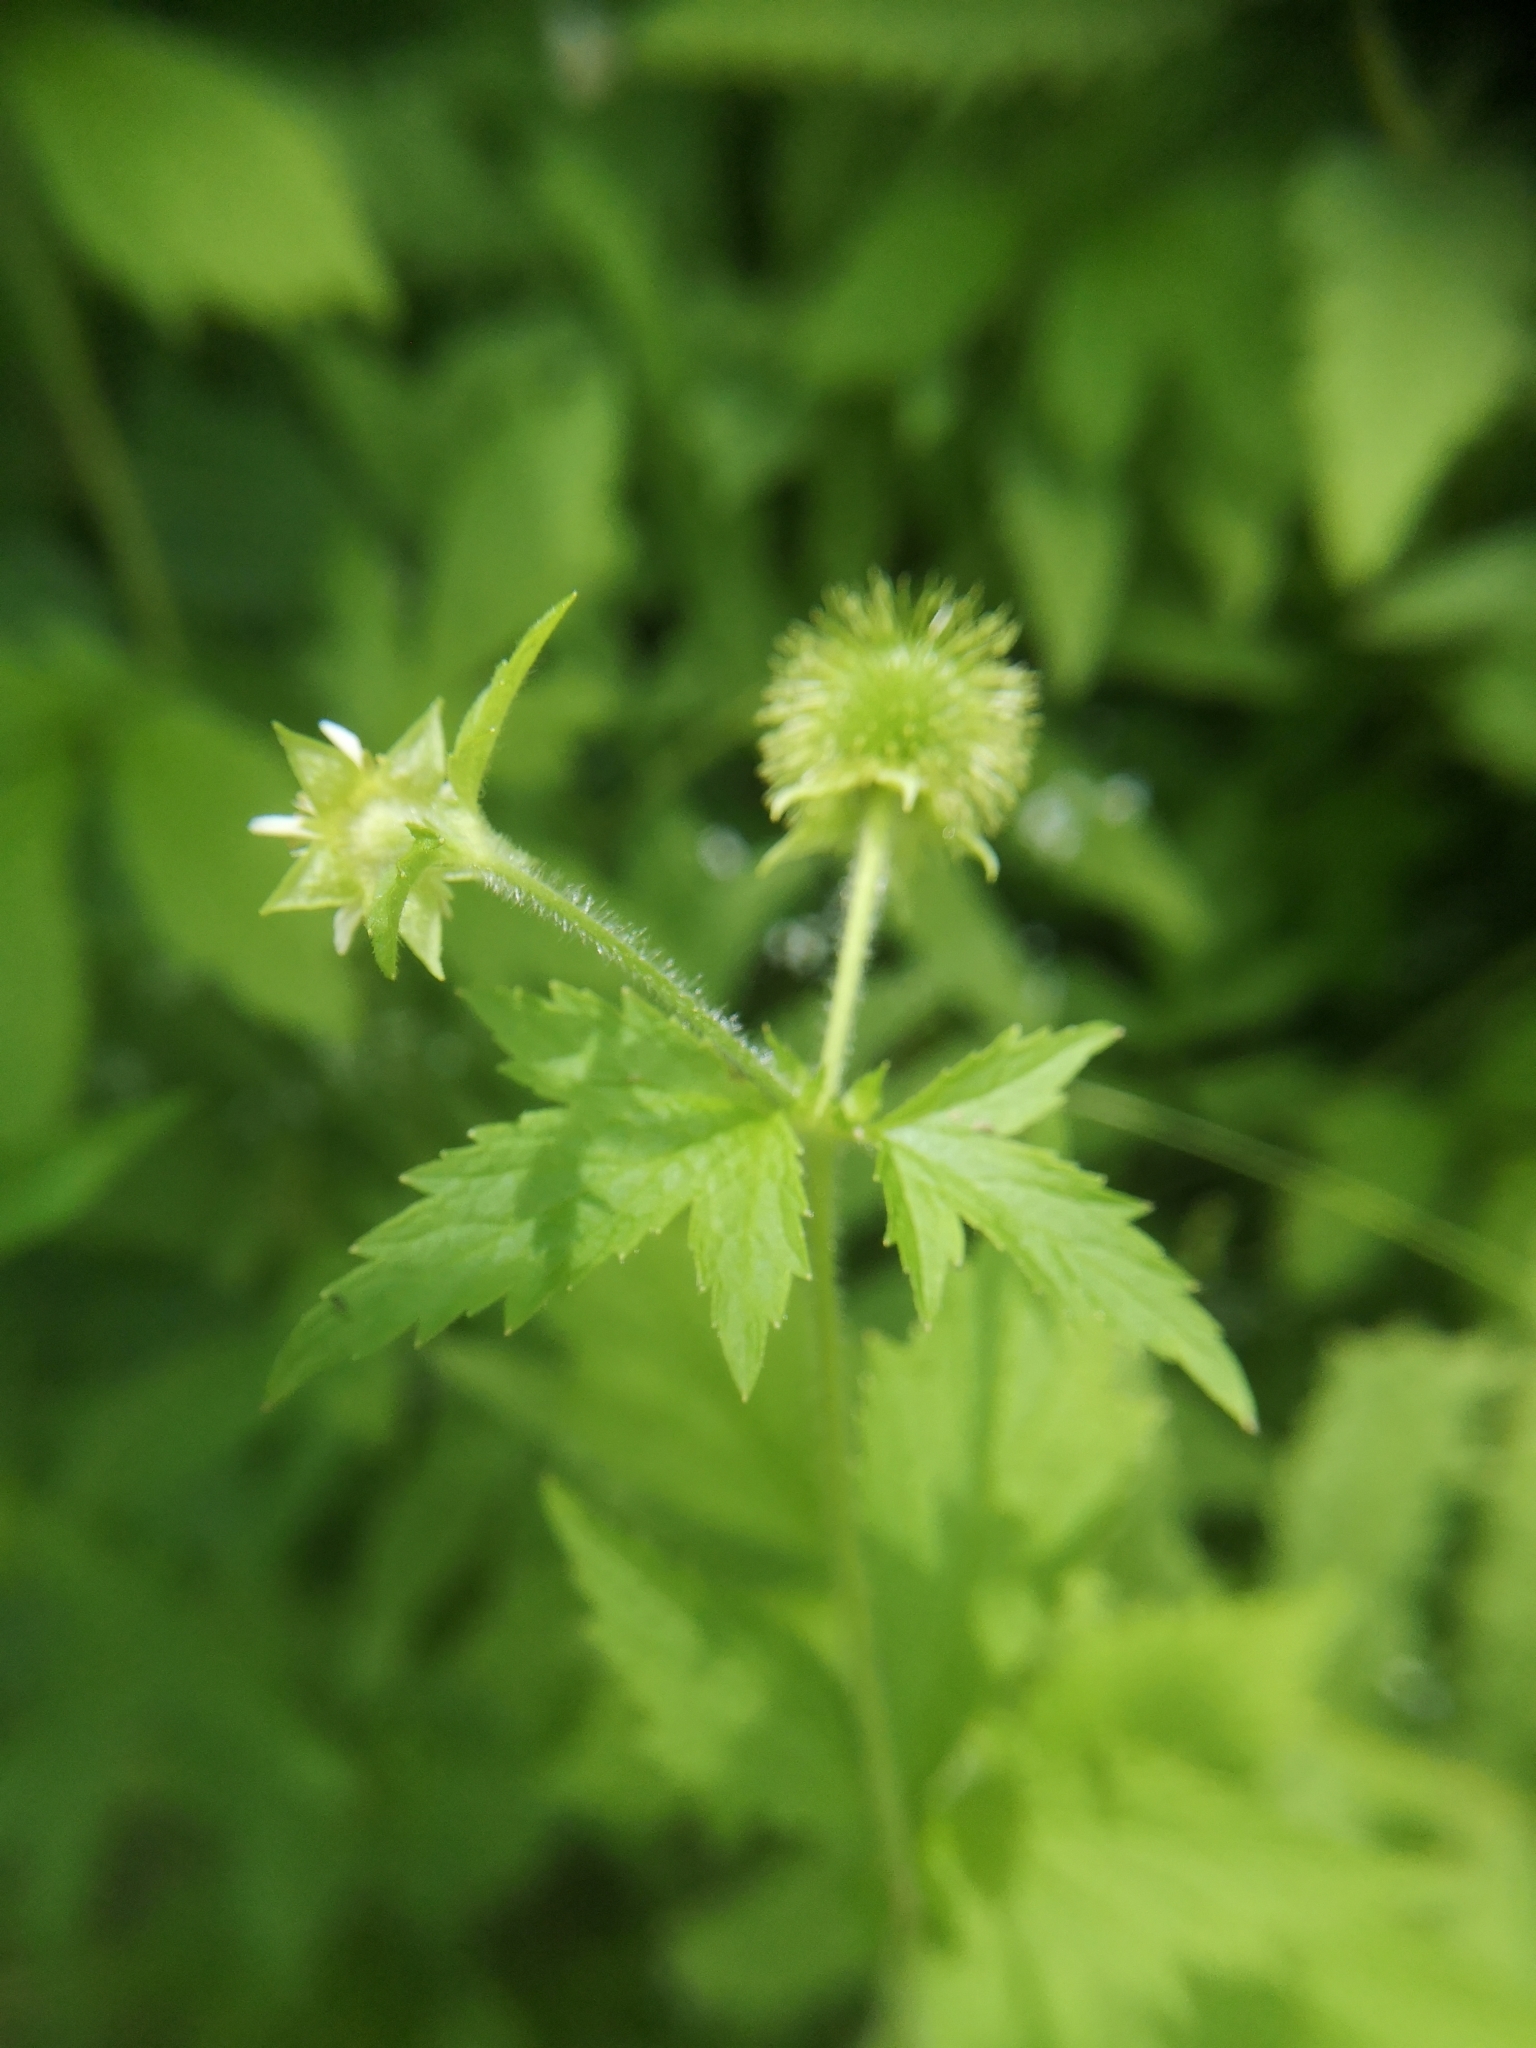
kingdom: Plantae
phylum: Tracheophyta
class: Magnoliopsida
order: Rosales
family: Rosaceae
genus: Geum
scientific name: Geum laciniatum
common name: Rough avens
